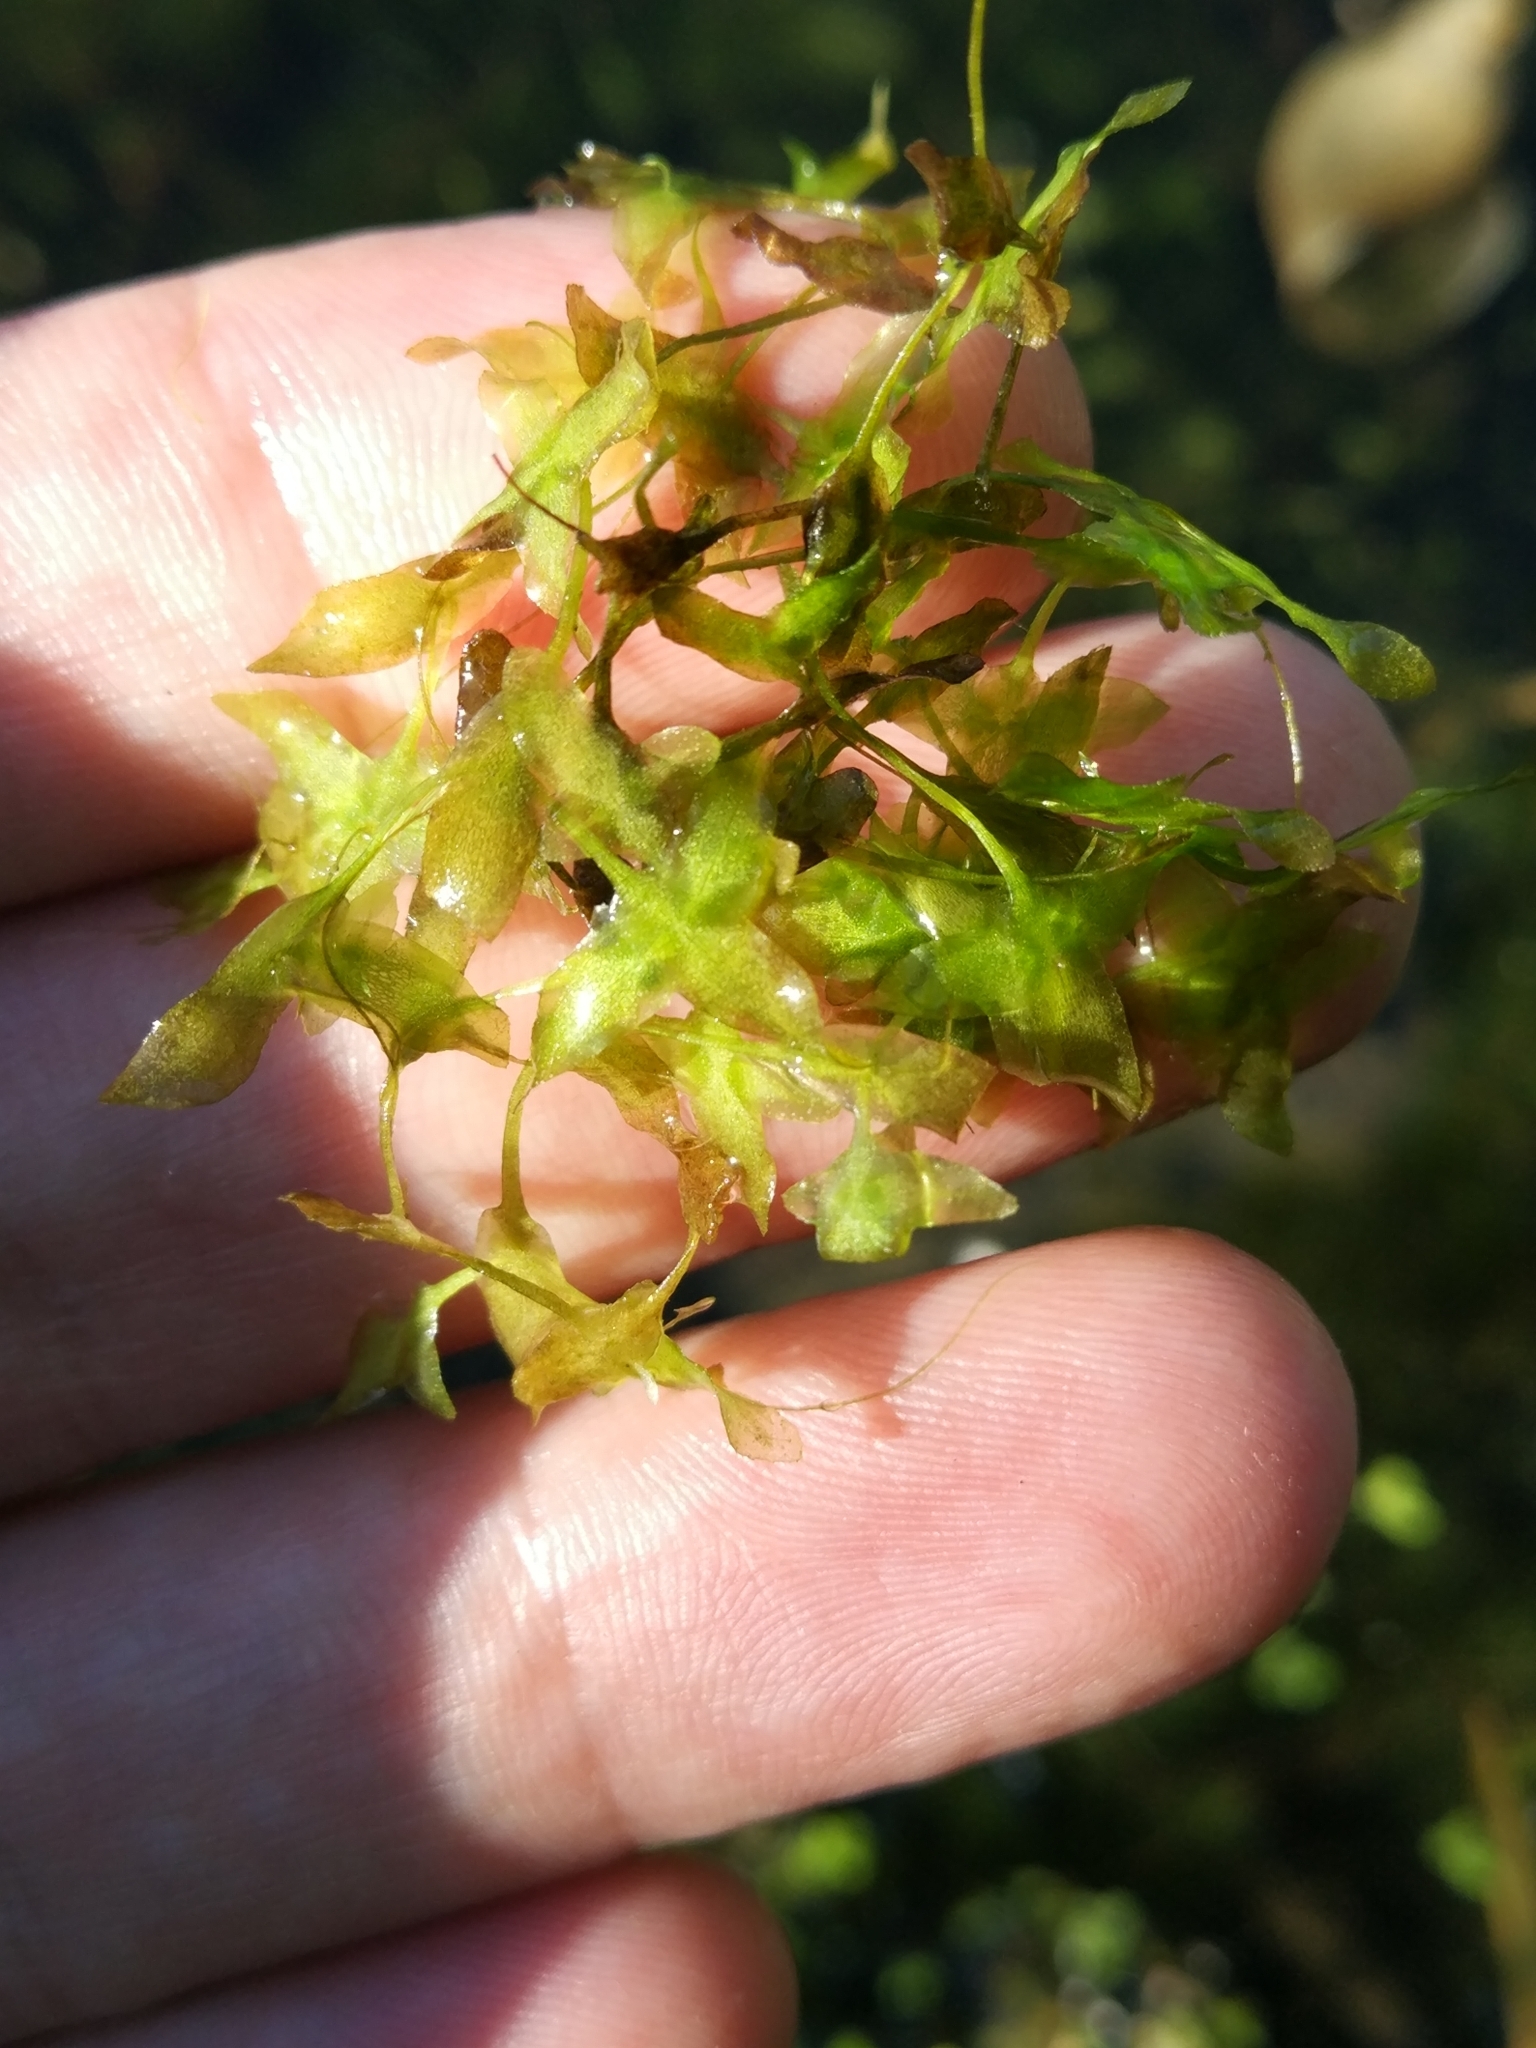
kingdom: Plantae
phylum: Tracheophyta
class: Liliopsida
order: Alismatales
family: Araceae
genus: Lemna
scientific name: Lemna trisulca
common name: Ivy-leaved duckweed
